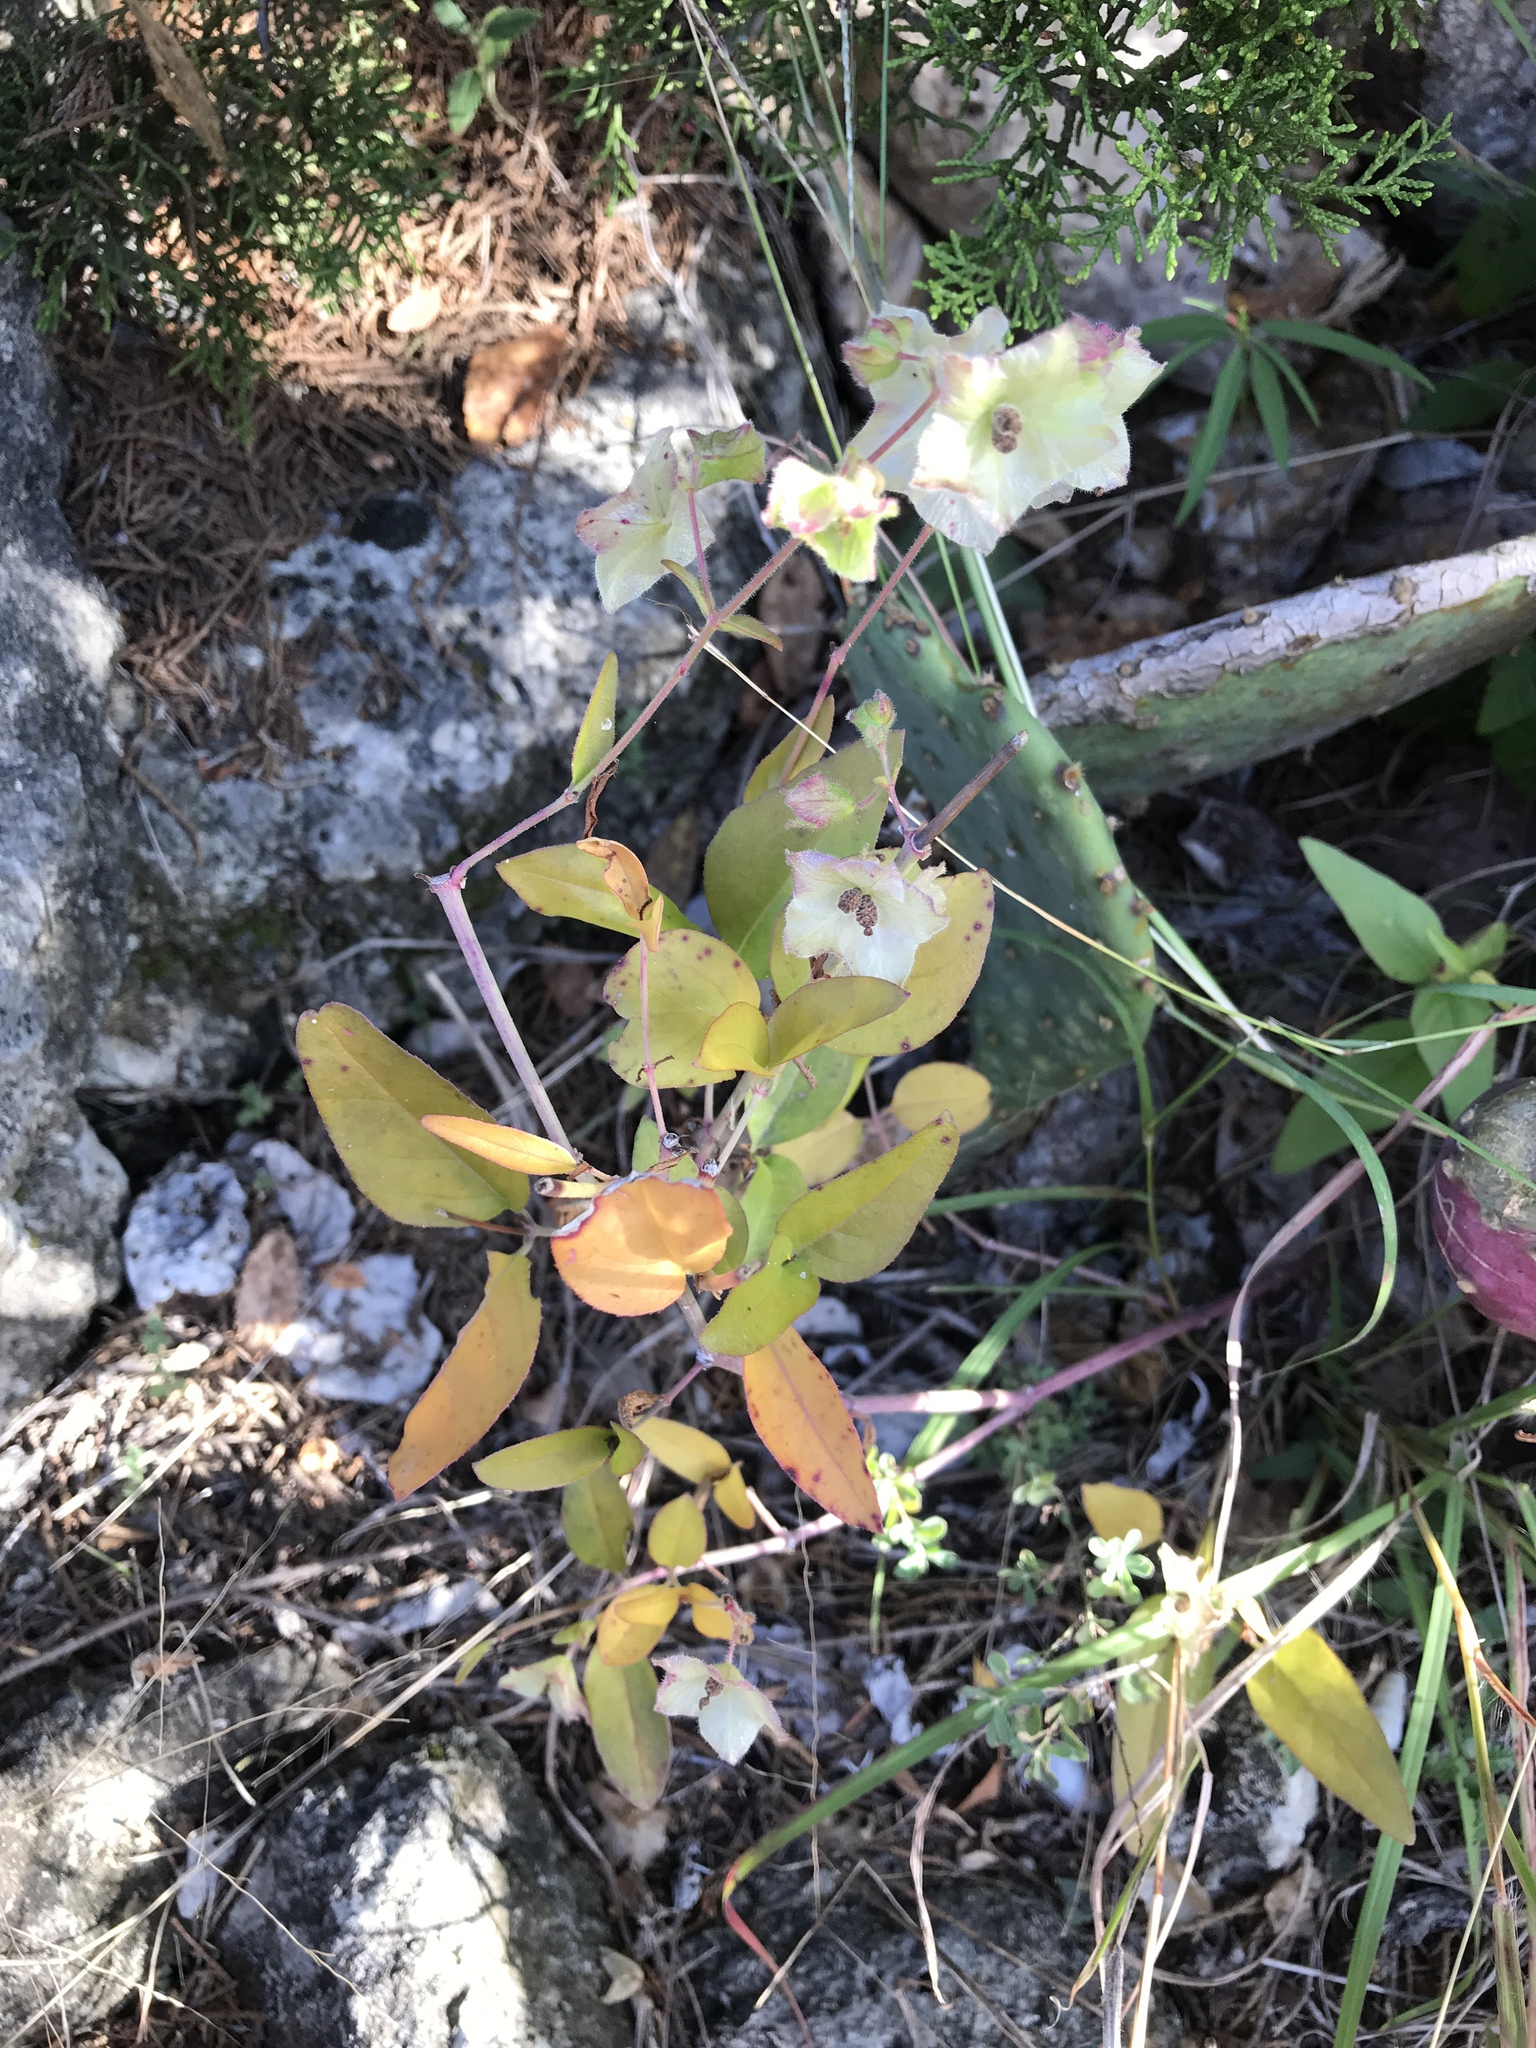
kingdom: Plantae
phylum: Tracheophyta
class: Magnoliopsida
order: Caryophyllales
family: Nyctaginaceae
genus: Mirabilis
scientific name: Mirabilis albida
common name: Hairy four-o'clock
